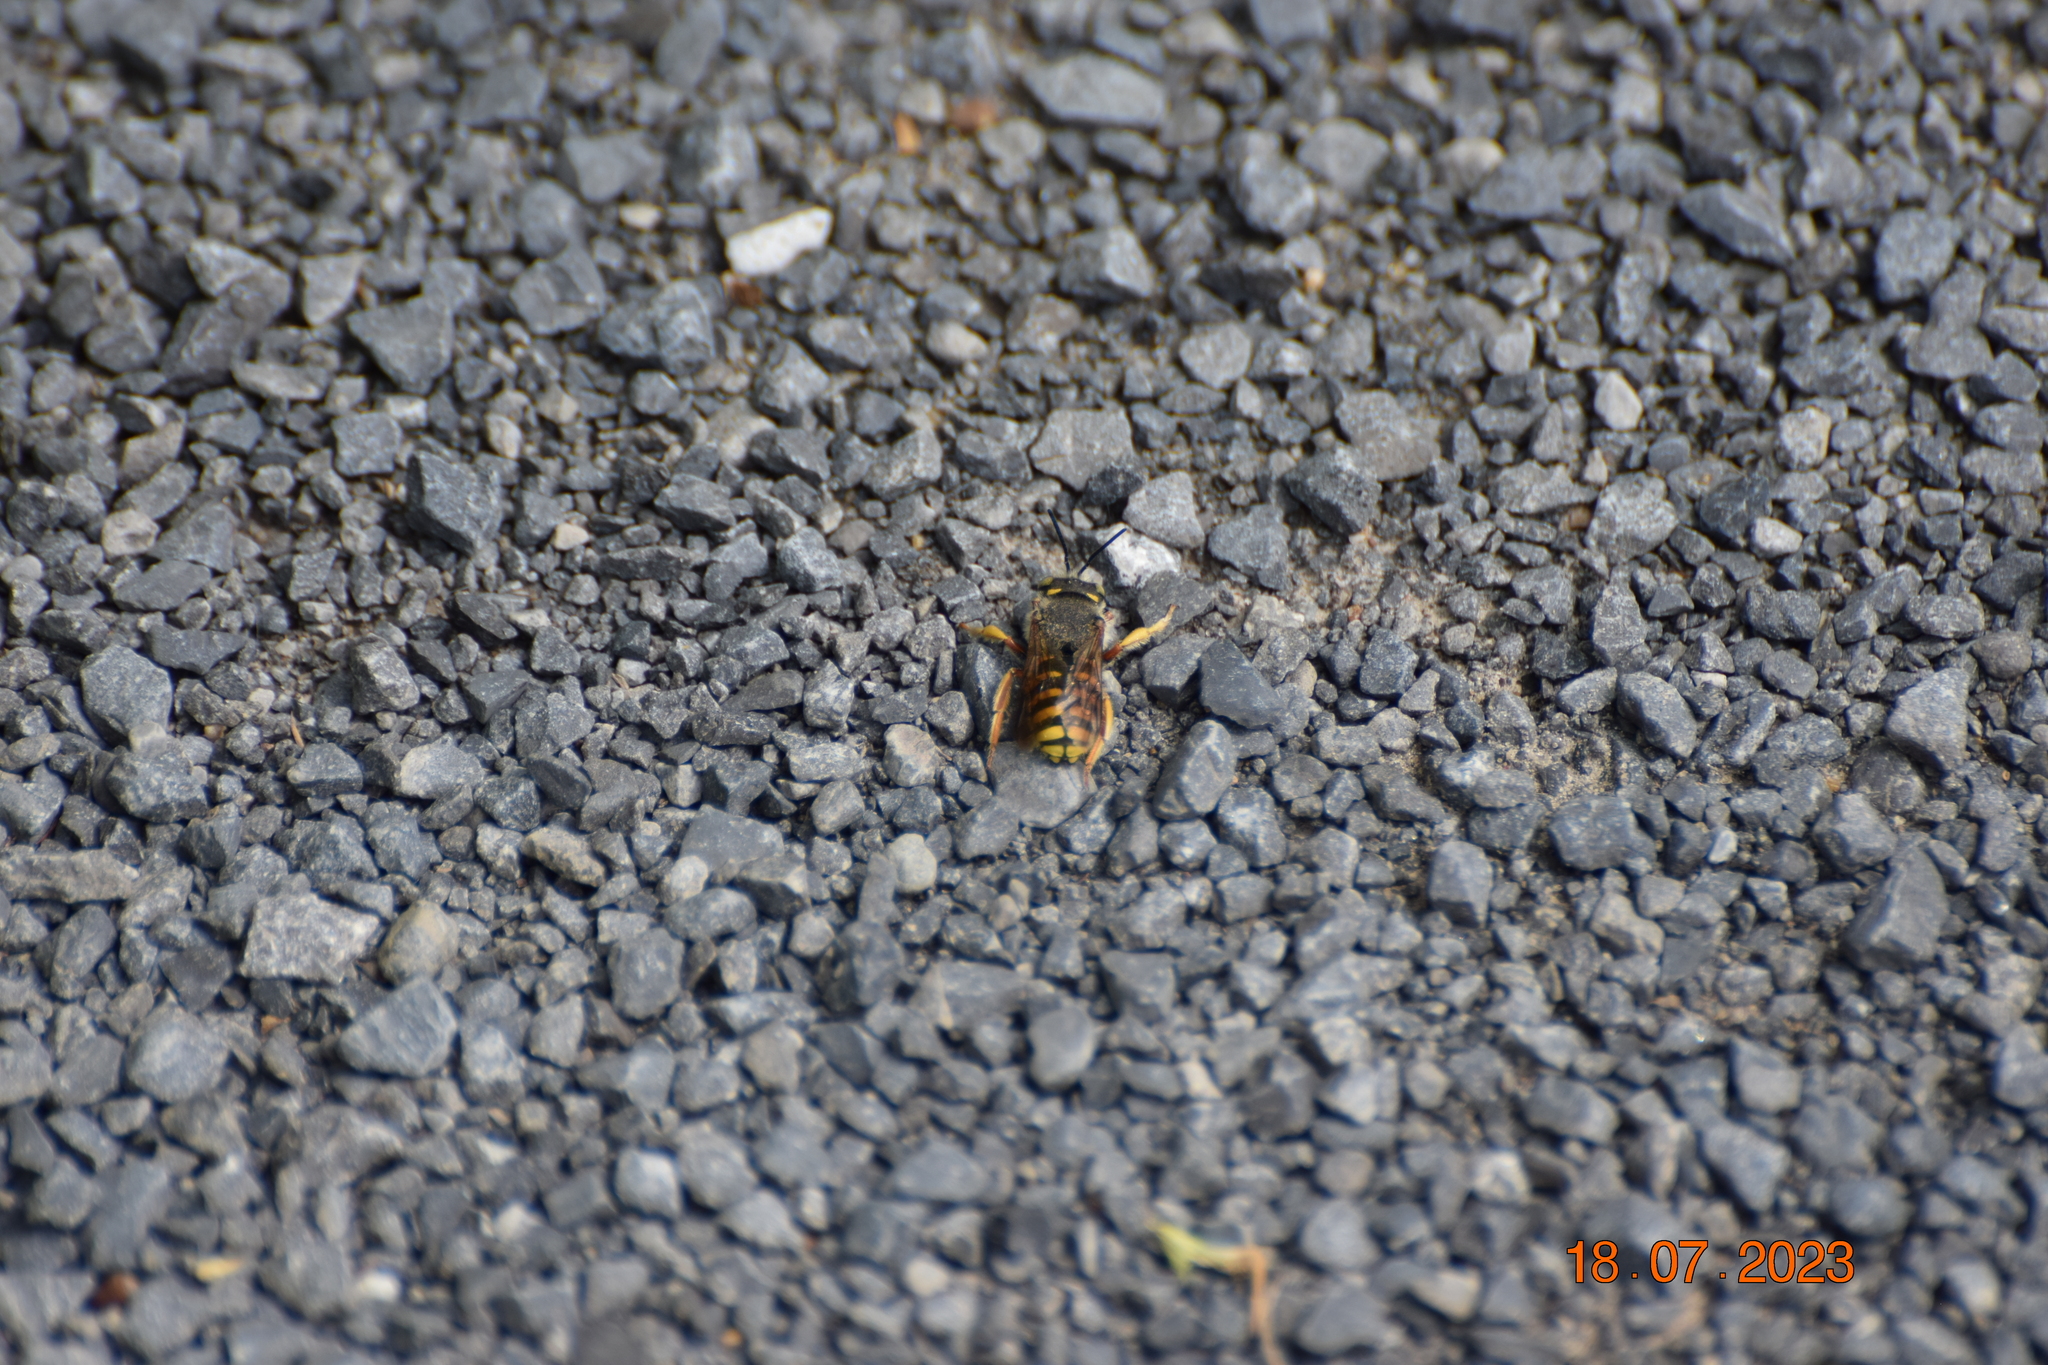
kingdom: Animalia
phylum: Arthropoda
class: Insecta
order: Hymenoptera
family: Megachilidae
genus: Anthidium
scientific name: Anthidium oblongatum
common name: Oblong wool carder bee
